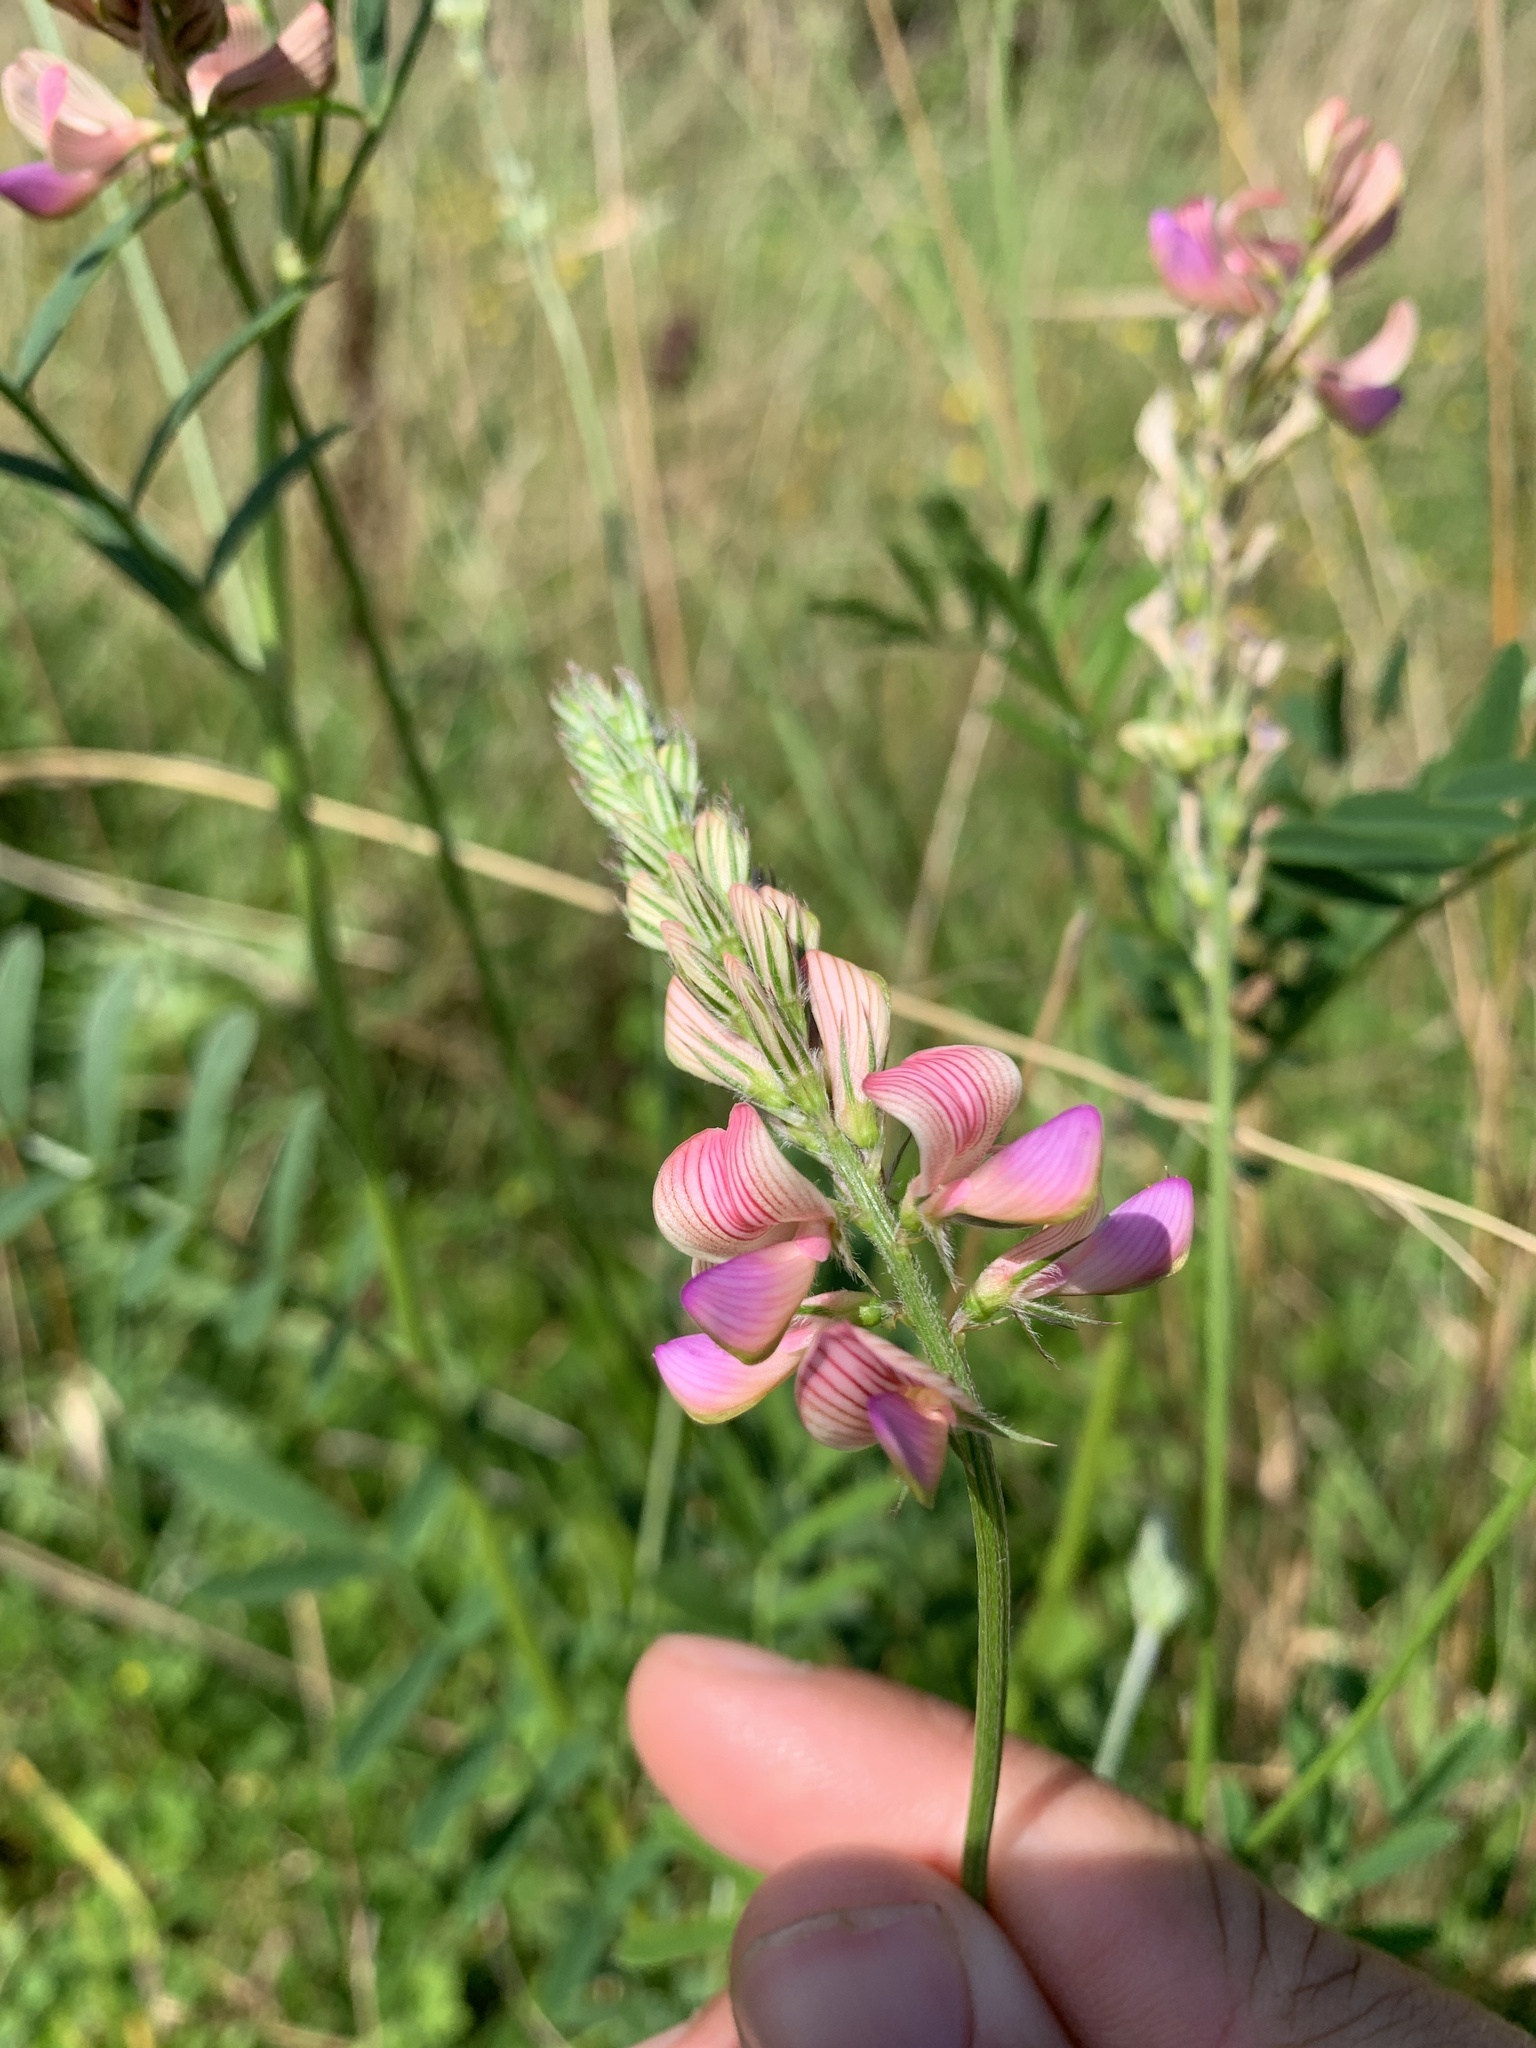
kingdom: Plantae
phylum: Tracheophyta
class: Magnoliopsida
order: Fabales
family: Fabaceae
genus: Onobrychis
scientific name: Onobrychis viciifolia
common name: Sainfoin
